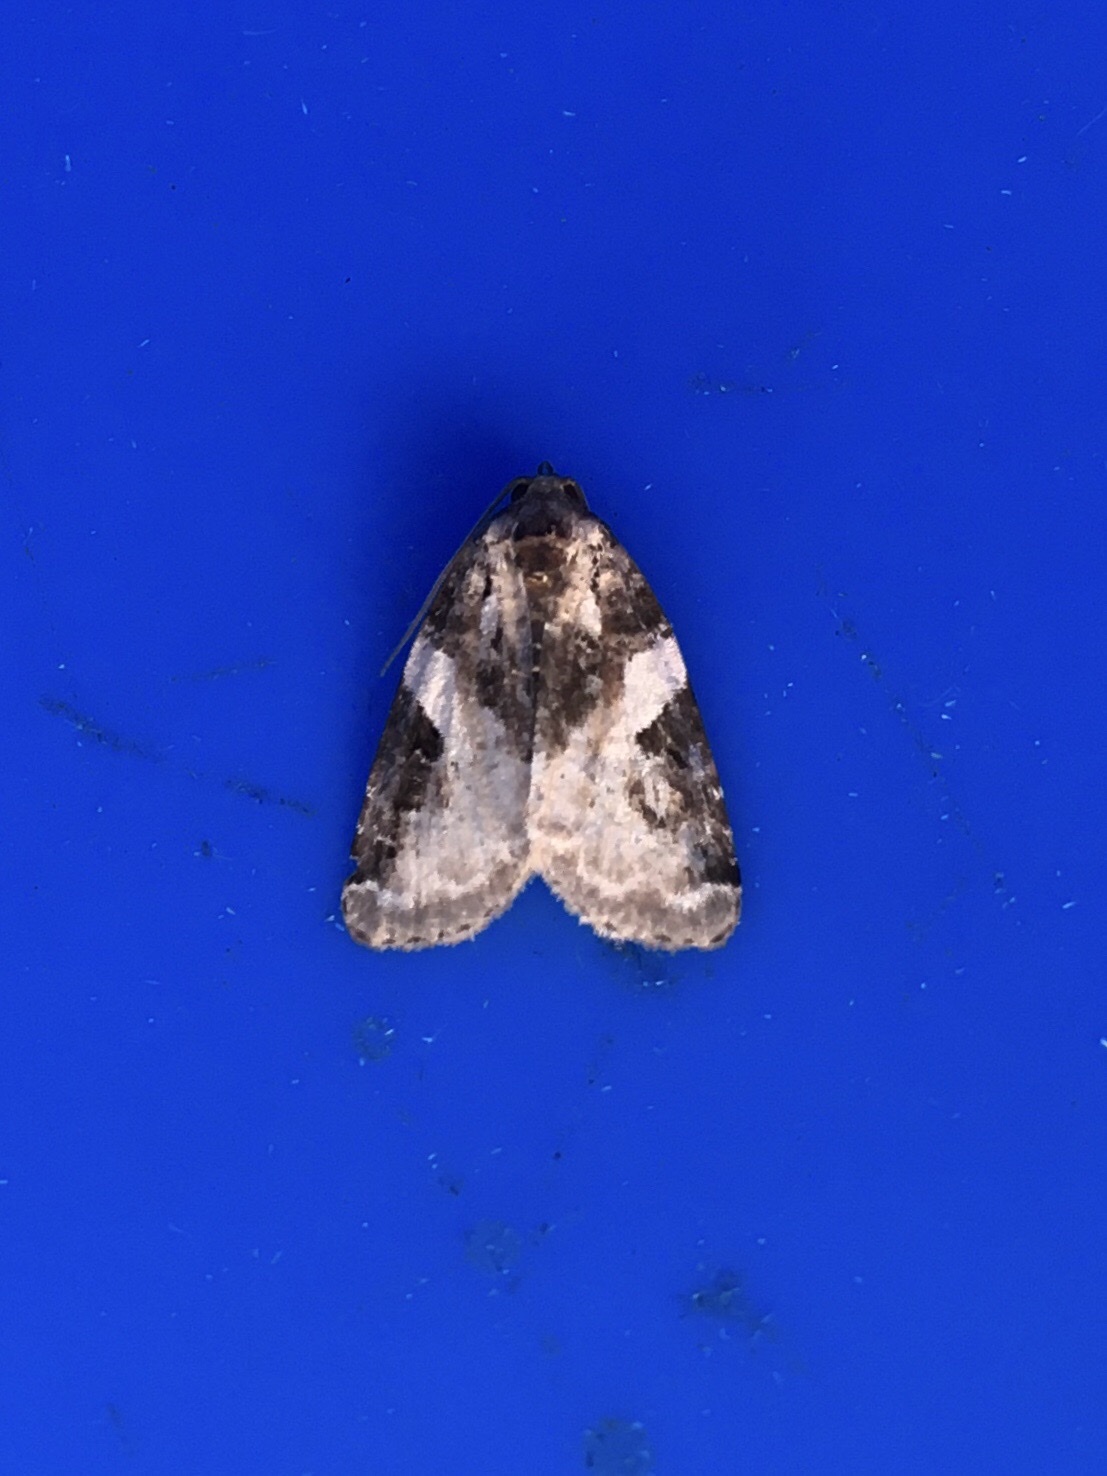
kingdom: Animalia
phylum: Arthropoda
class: Insecta
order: Lepidoptera
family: Noctuidae
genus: Pseudeustrotia
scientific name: Pseudeustrotia carneola
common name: Pink-barred lithacodia moth
